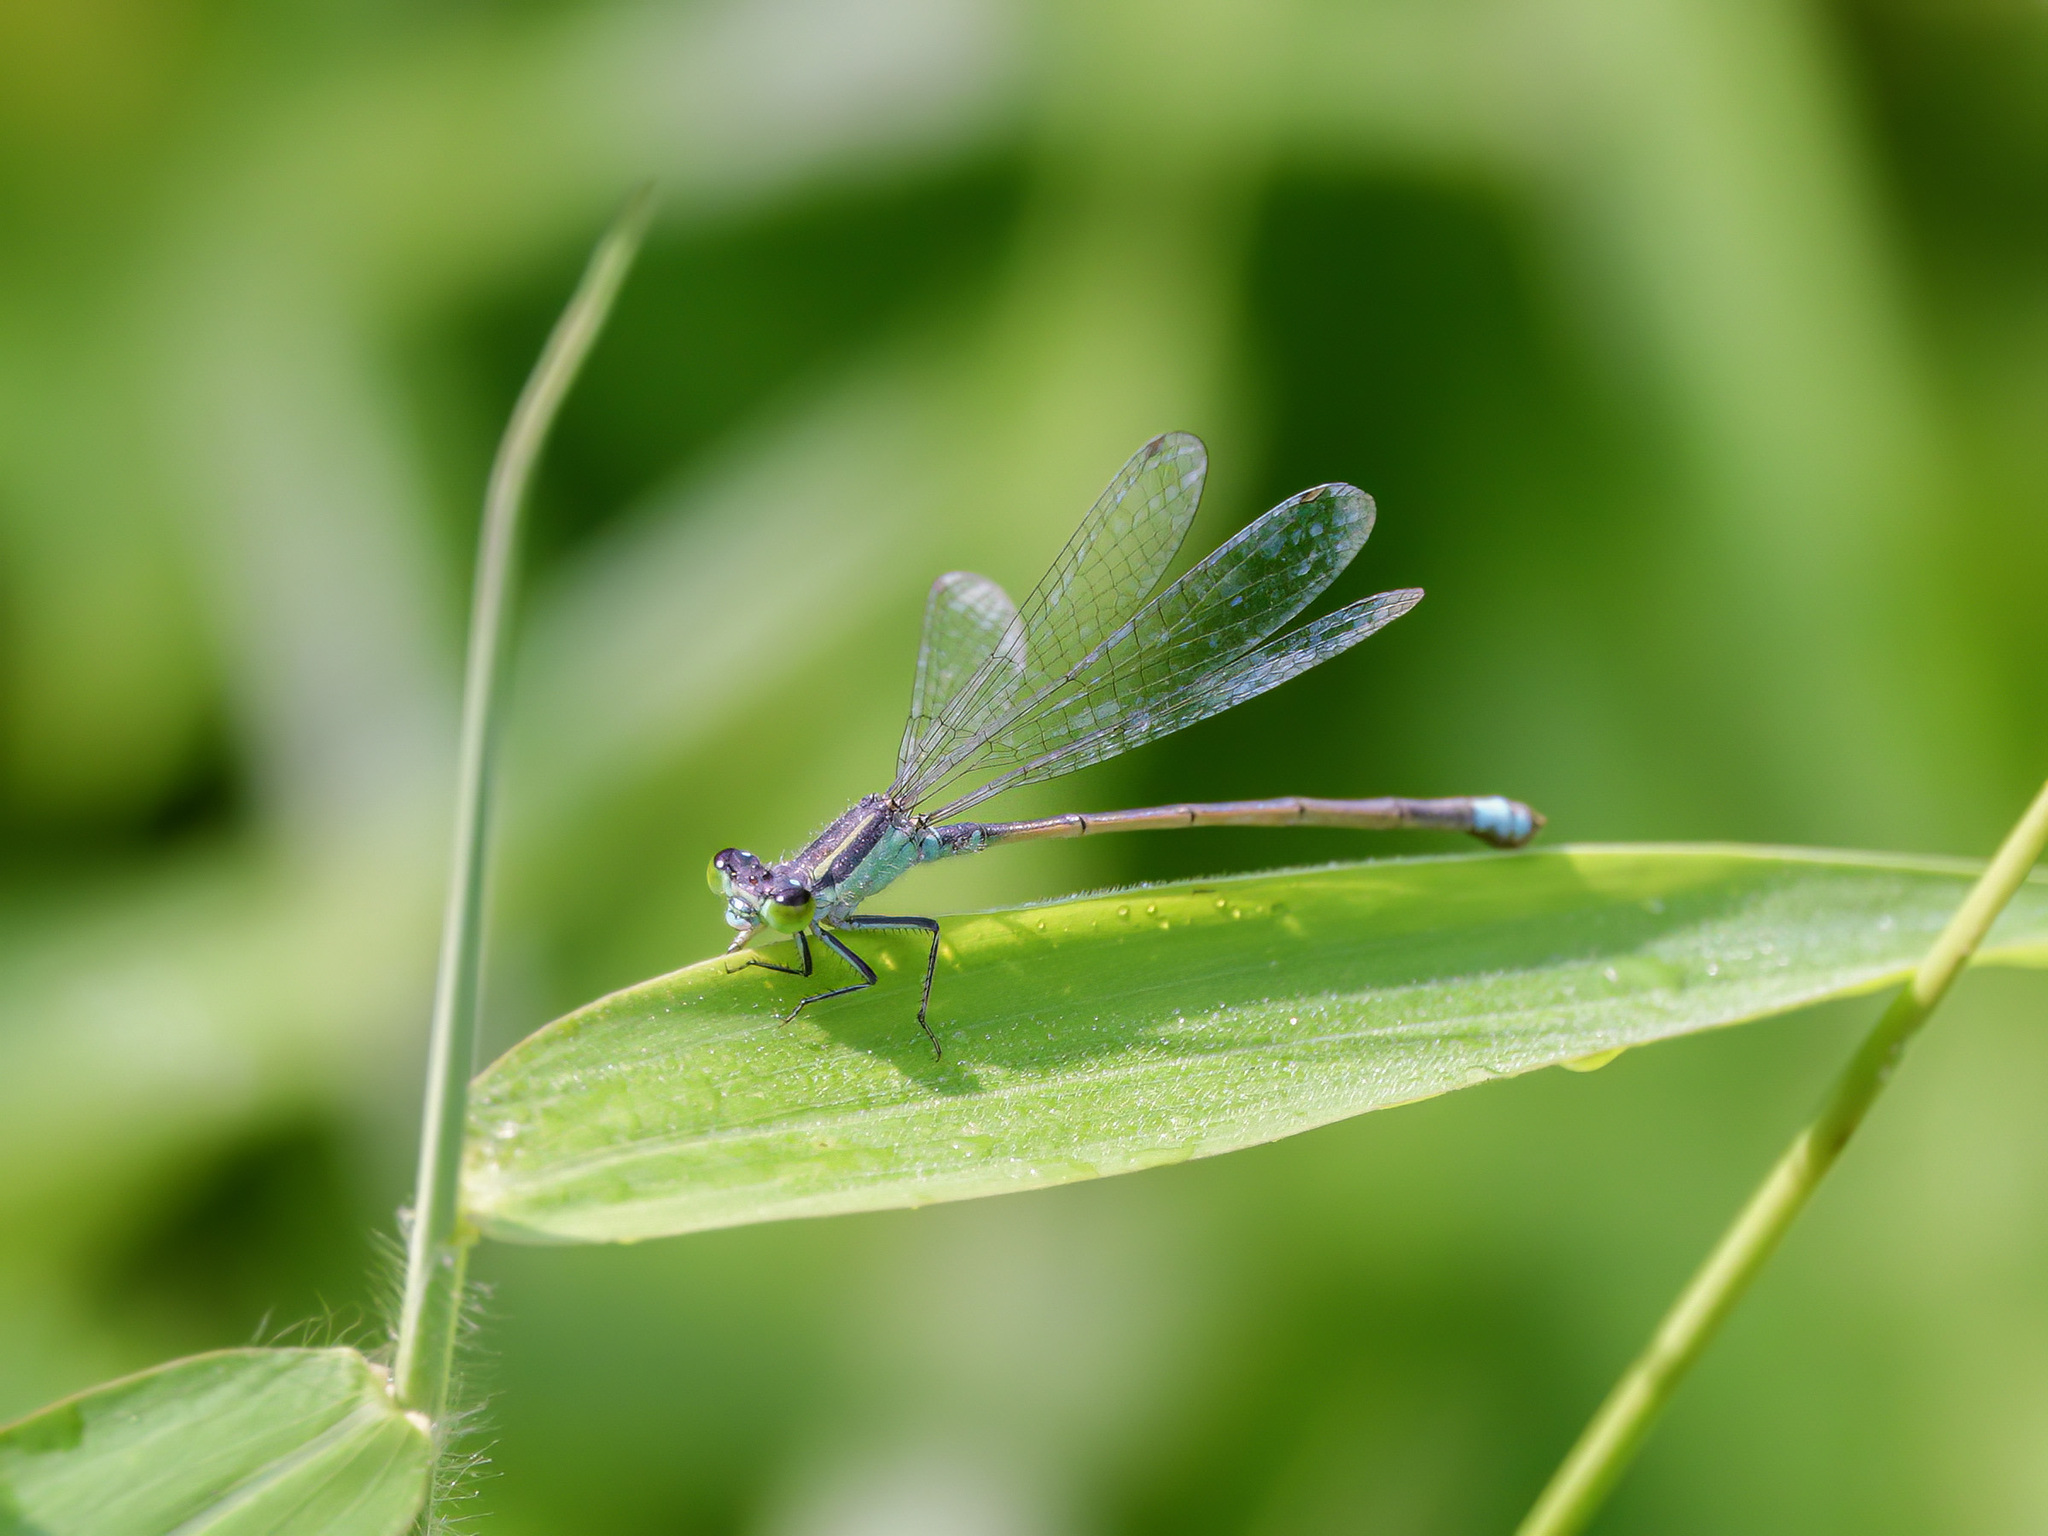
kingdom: Animalia
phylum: Arthropoda
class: Insecta
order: Odonata
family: Coenagrionidae
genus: Ischnura
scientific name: Ischnura senegalensis
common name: Tropical bluetail
